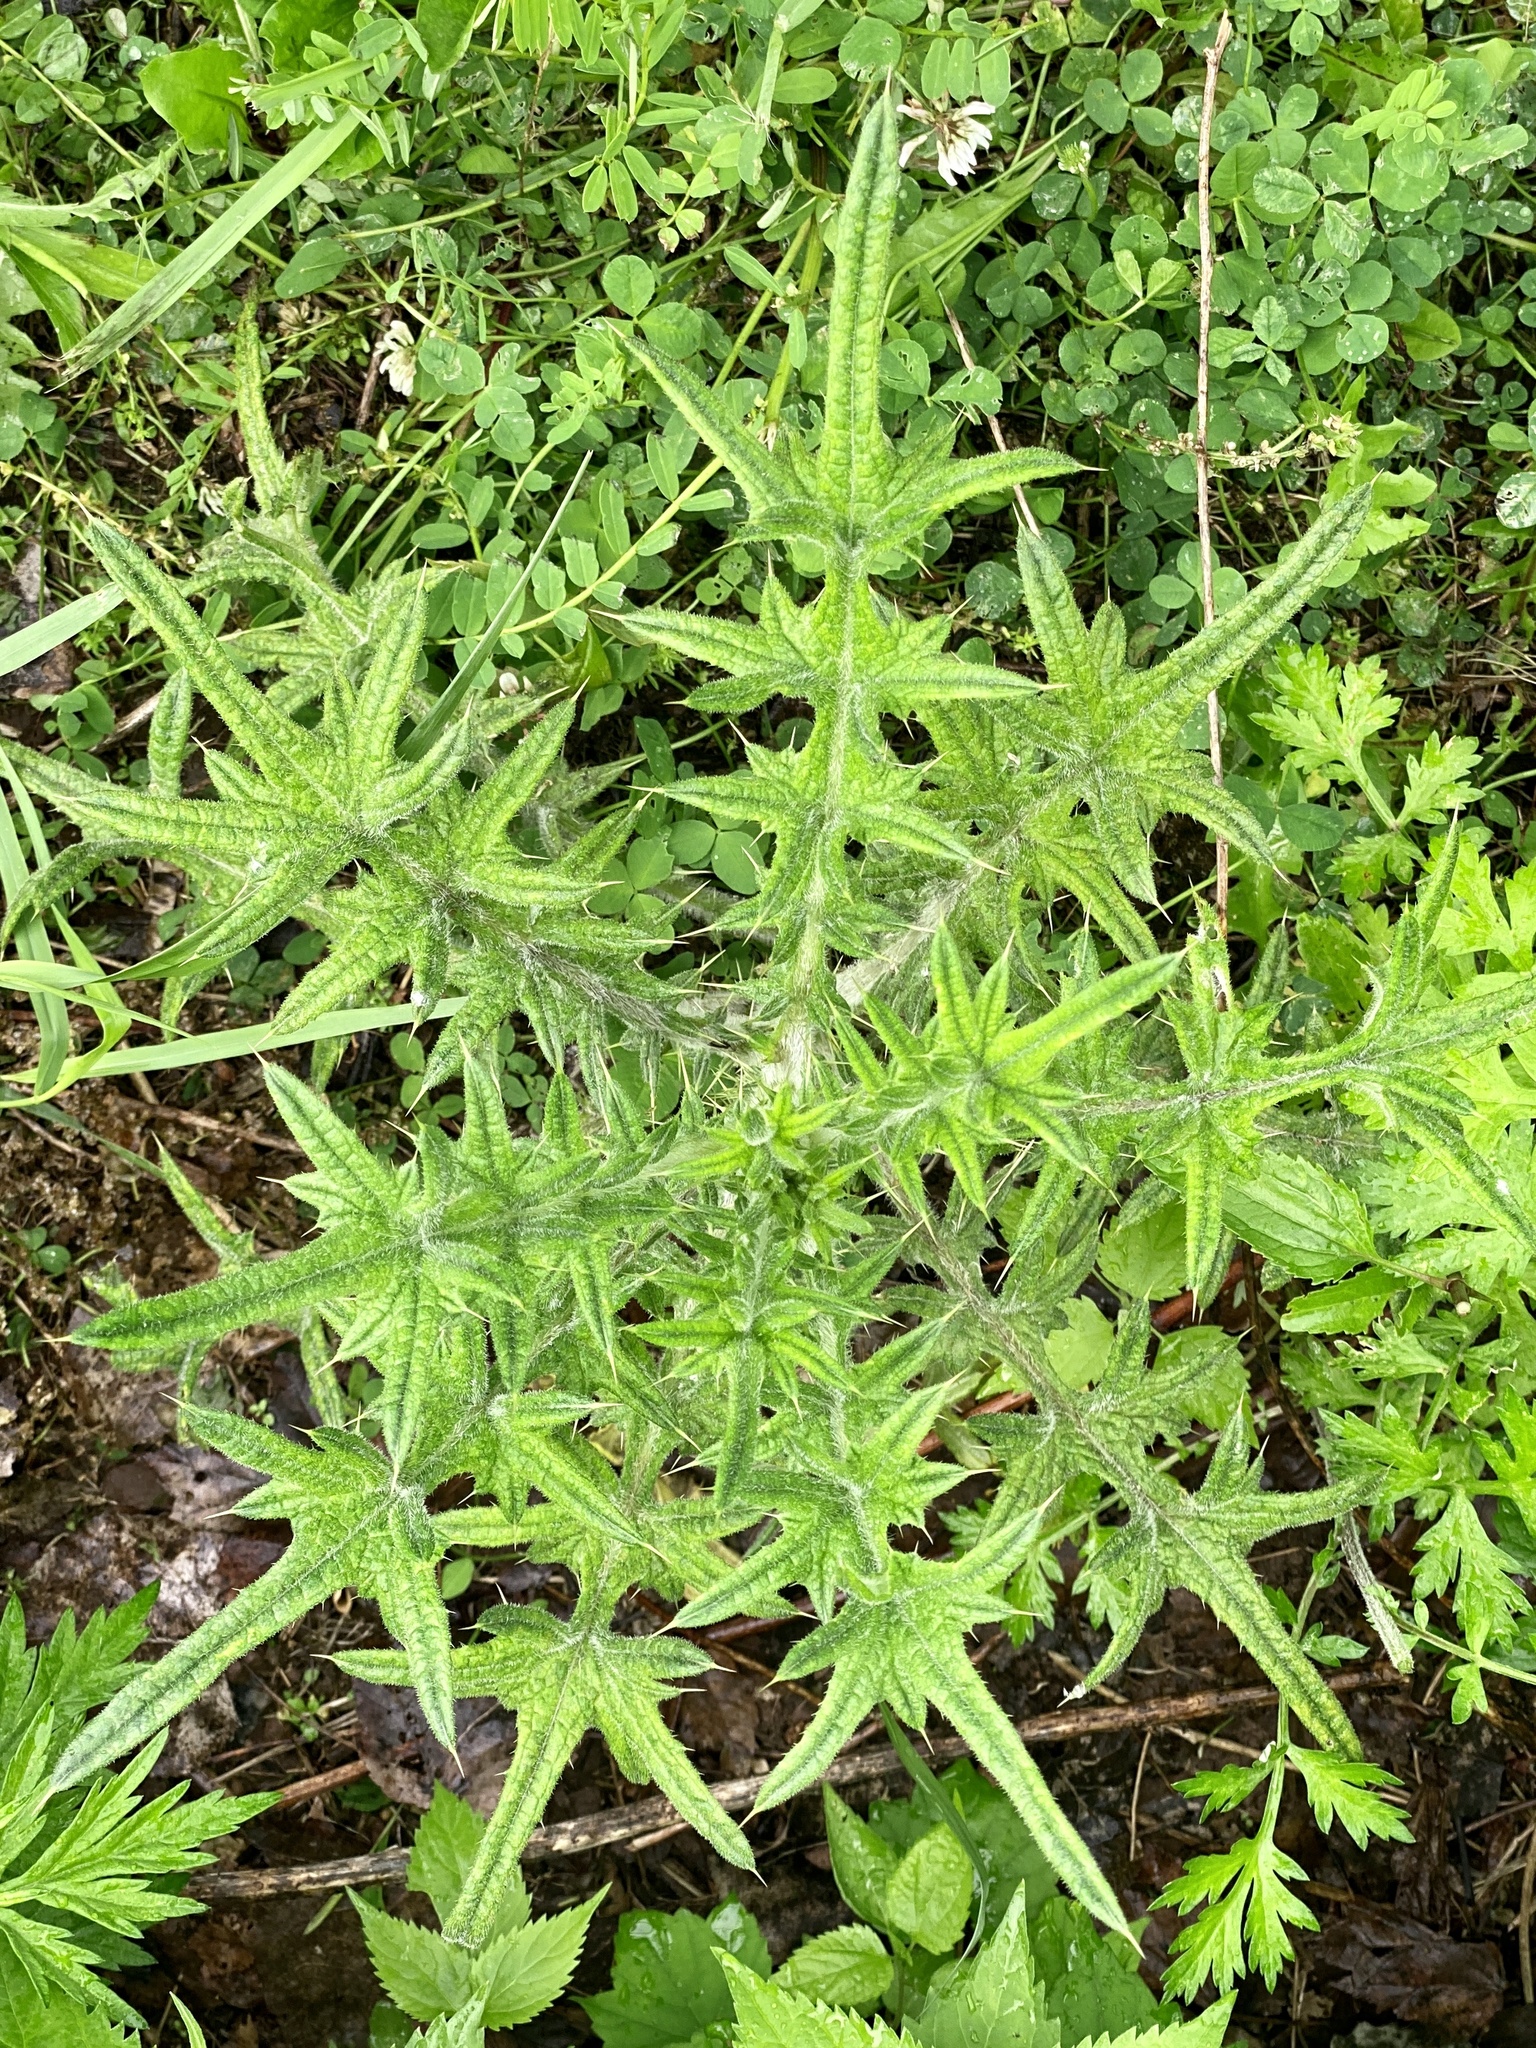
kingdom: Plantae
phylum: Tracheophyta
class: Magnoliopsida
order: Asterales
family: Asteraceae
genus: Cirsium
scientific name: Cirsium vulgare
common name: Bull thistle
